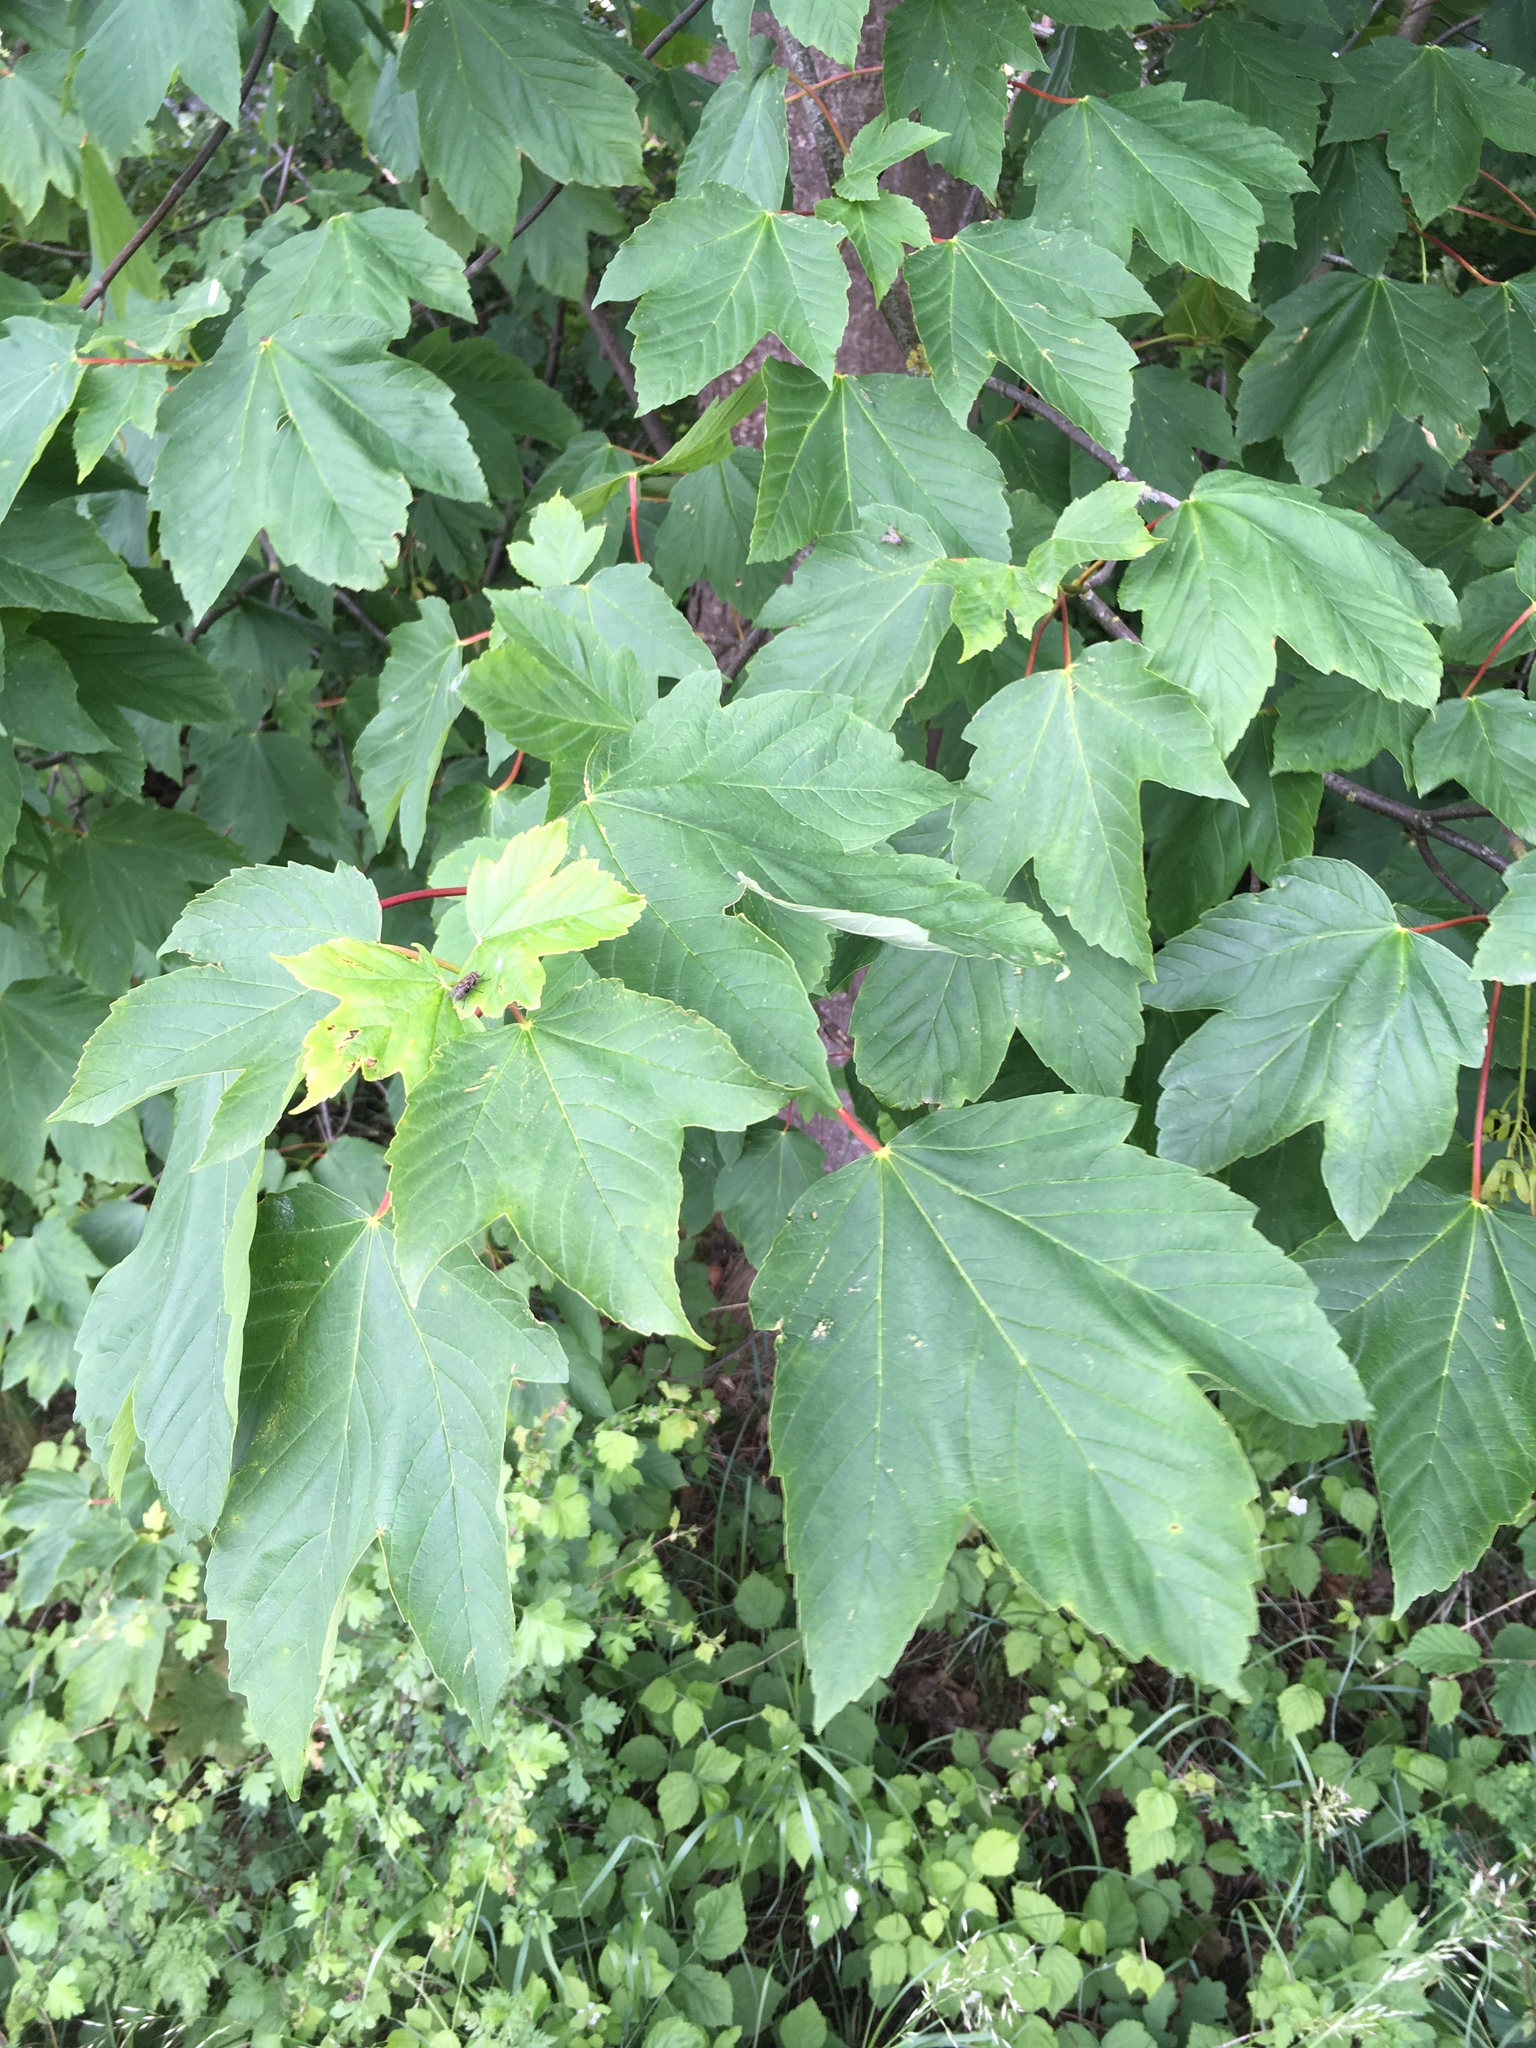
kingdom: Plantae
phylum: Tracheophyta
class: Magnoliopsida
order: Sapindales
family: Sapindaceae
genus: Acer
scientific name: Acer pseudoplatanus
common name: Sycamore
